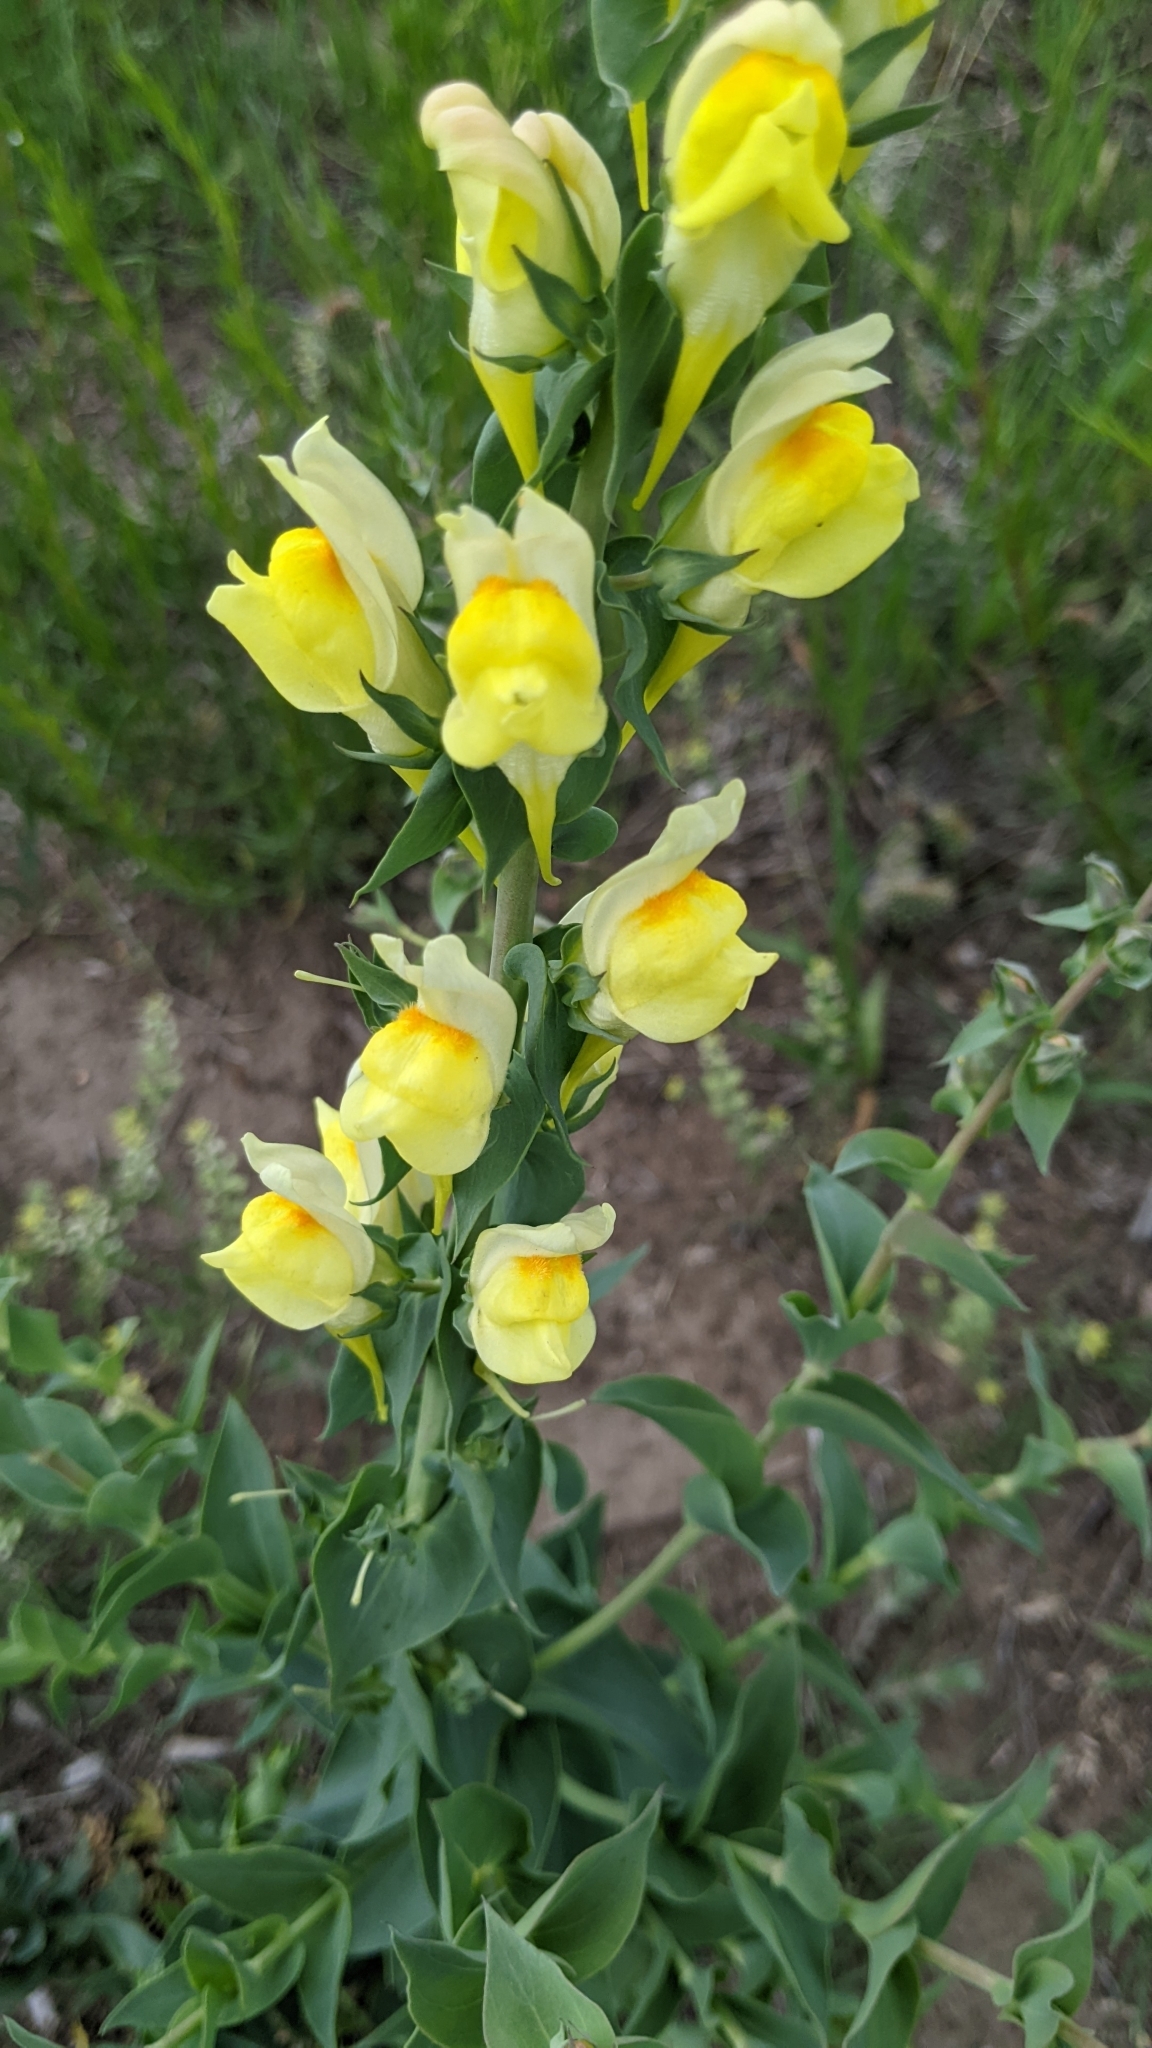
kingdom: Plantae
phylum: Tracheophyta
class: Magnoliopsida
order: Lamiales
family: Plantaginaceae
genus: Linaria
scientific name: Linaria dalmatica
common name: Dalmatian toadflax
